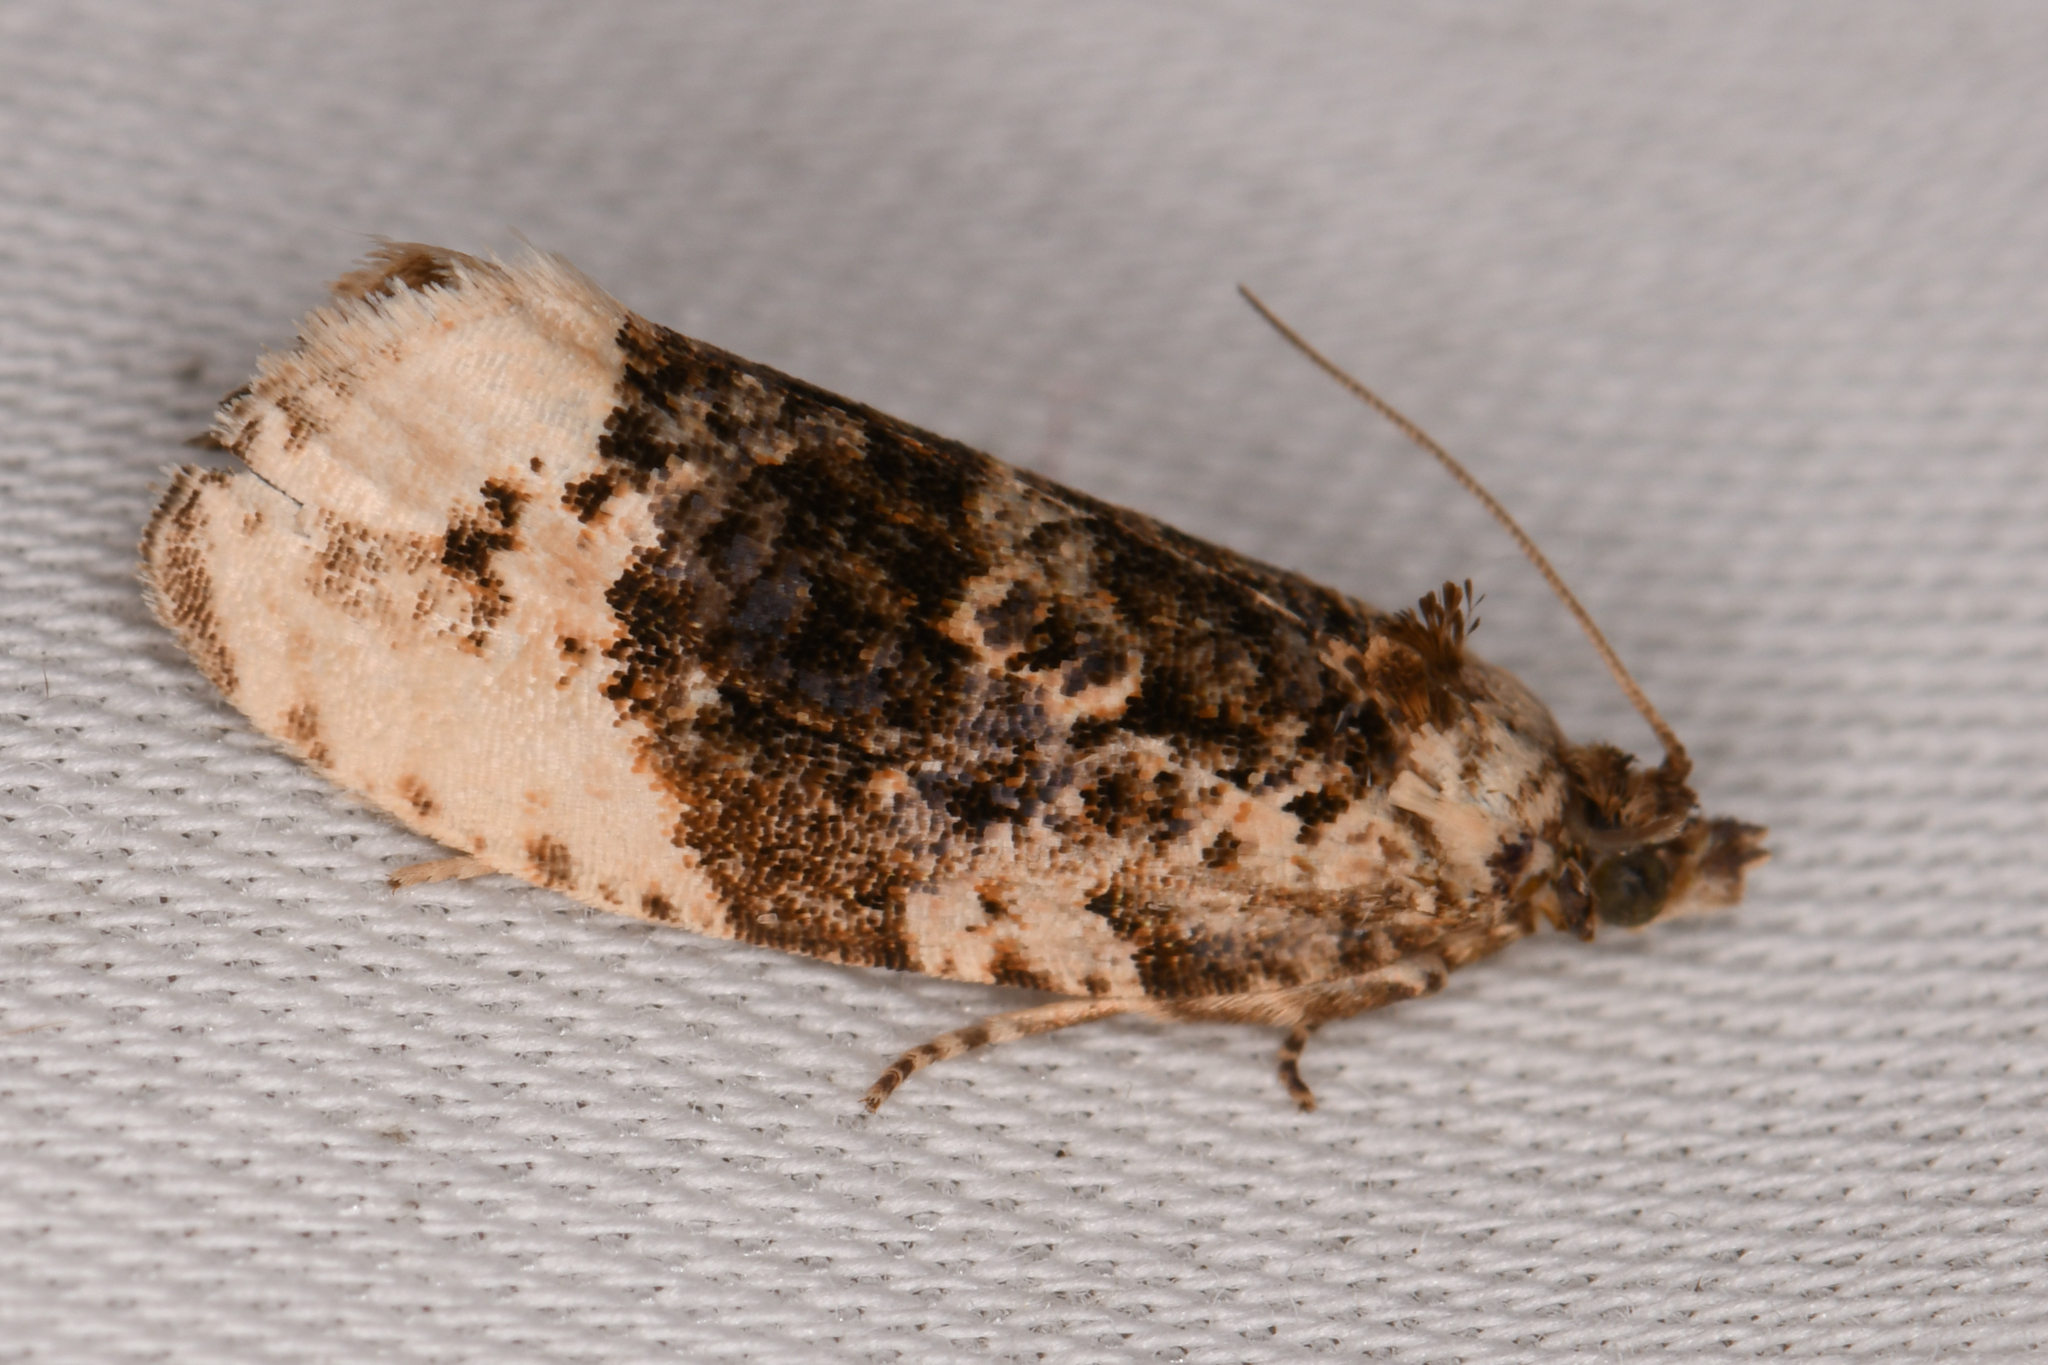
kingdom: Animalia
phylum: Arthropoda
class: Insecta
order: Lepidoptera
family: Tortricidae
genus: Hedya
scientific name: Hedya ochroleucana
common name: Buff-tipped marble
